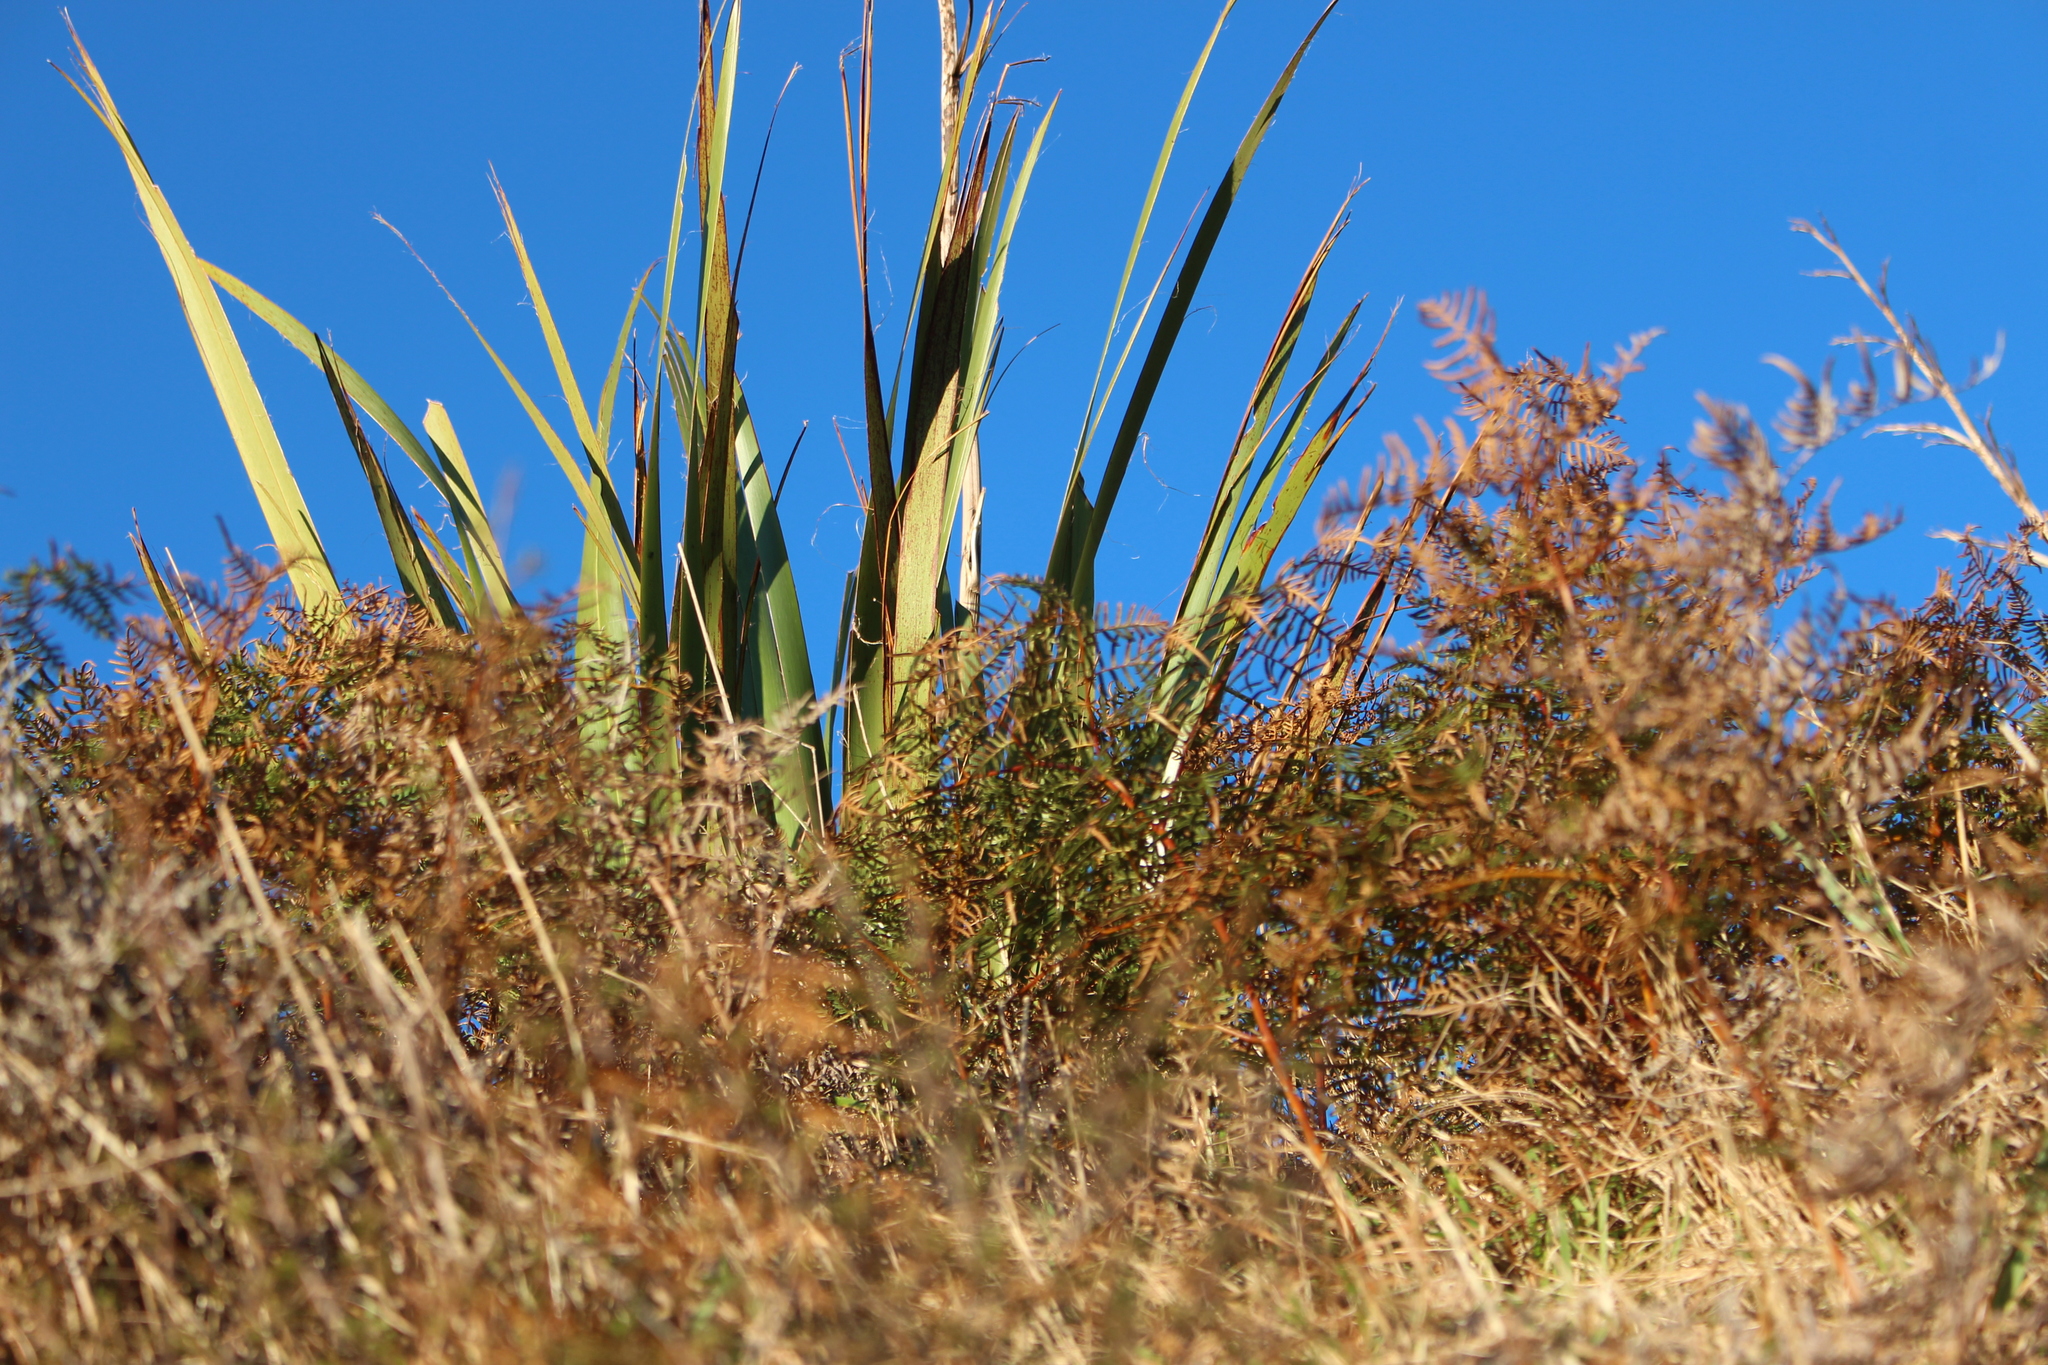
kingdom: Plantae
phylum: Tracheophyta
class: Polypodiopsida
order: Polypodiales
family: Dennstaedtiaceae
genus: Pteridium
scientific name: Pteridium esculentum
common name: Bracken fern
